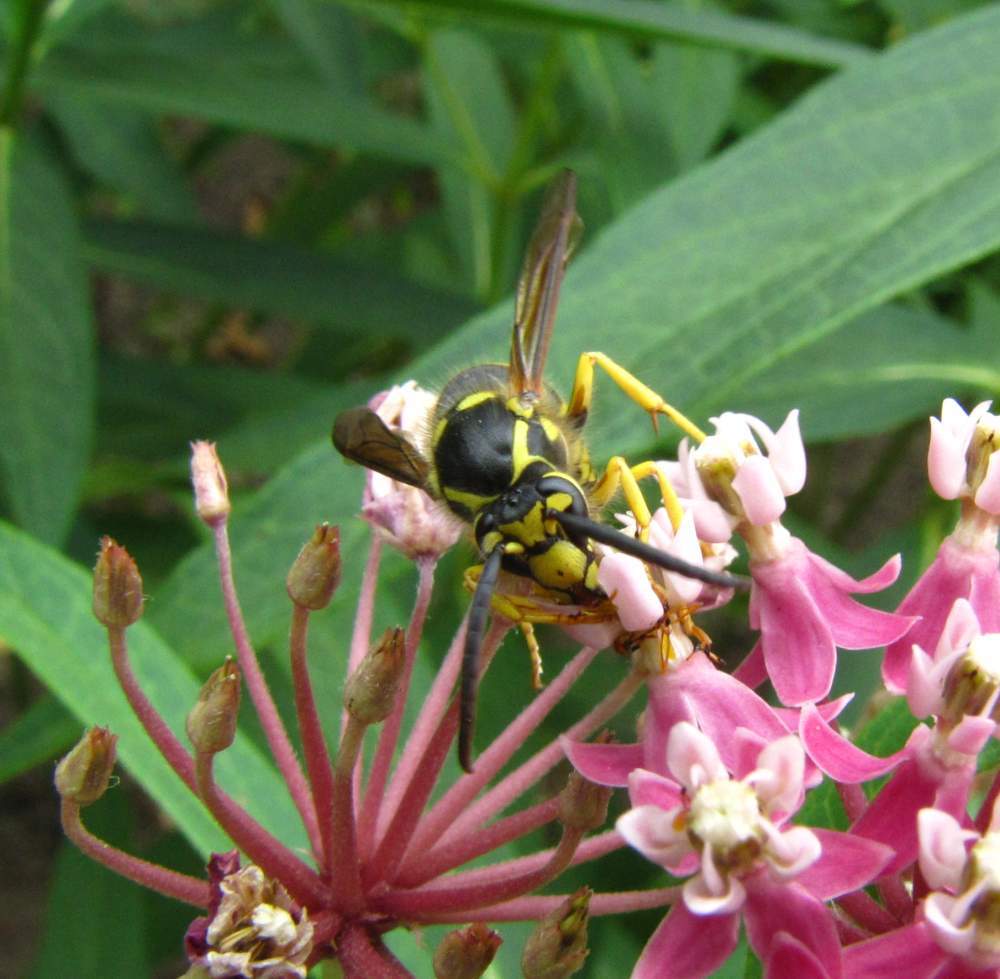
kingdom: Animalia
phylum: Arthropoda
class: Insecta
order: Hymenoptera
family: Vespidae
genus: Dolichovespula
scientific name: Dolichovespula arenaria
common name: Aerial yellowjacket
